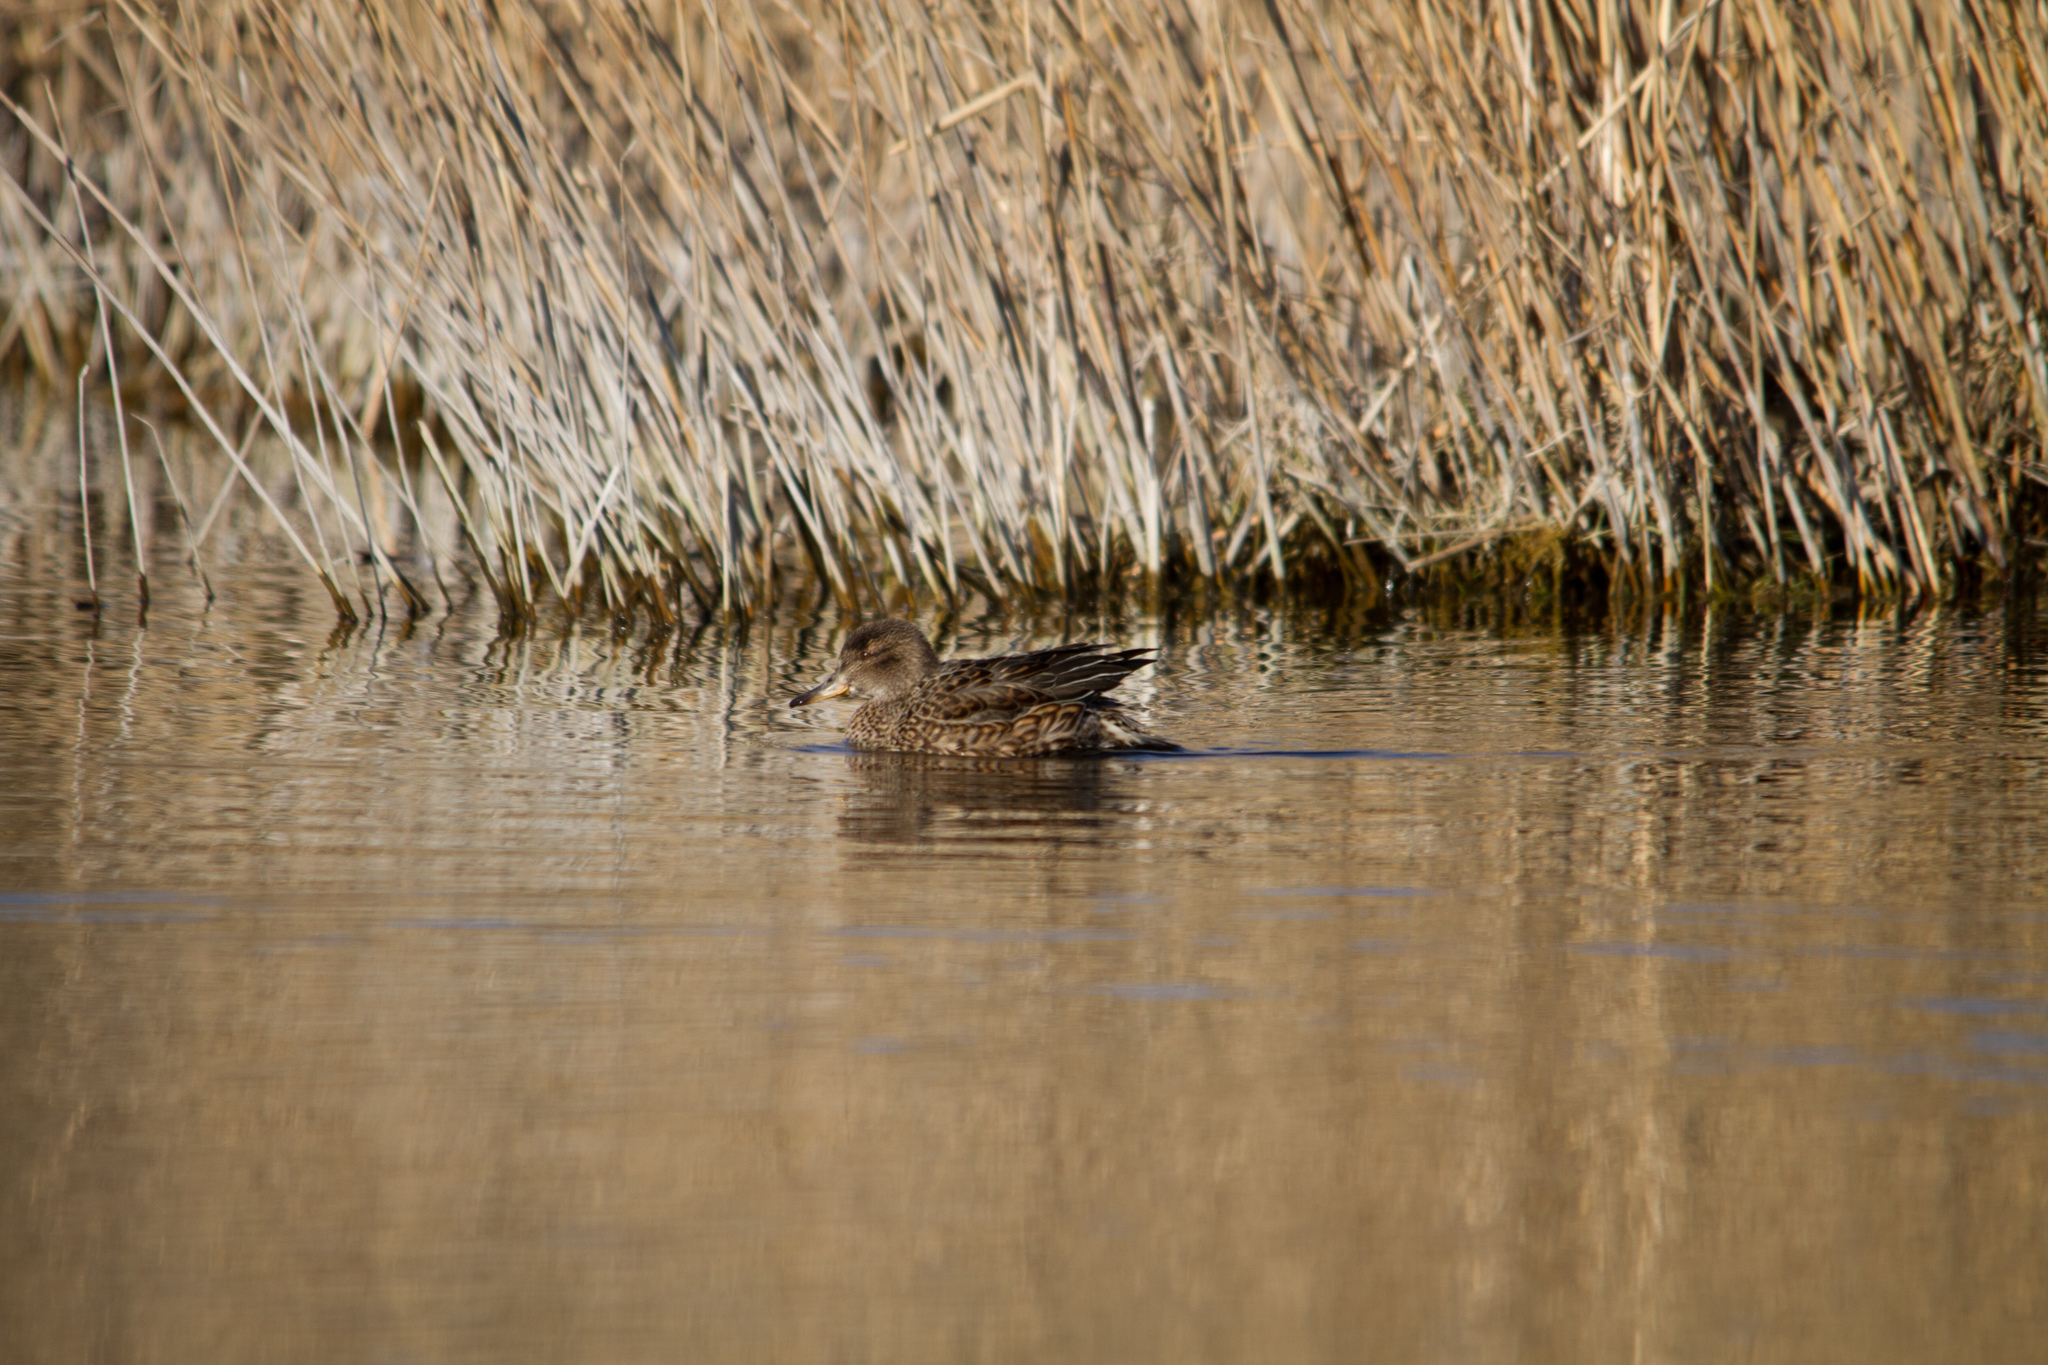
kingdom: Animalia
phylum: Chordata
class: Aves
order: Anseriformes
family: Anatidae
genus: Anas
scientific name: Anas crecca
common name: Eurasian teal
